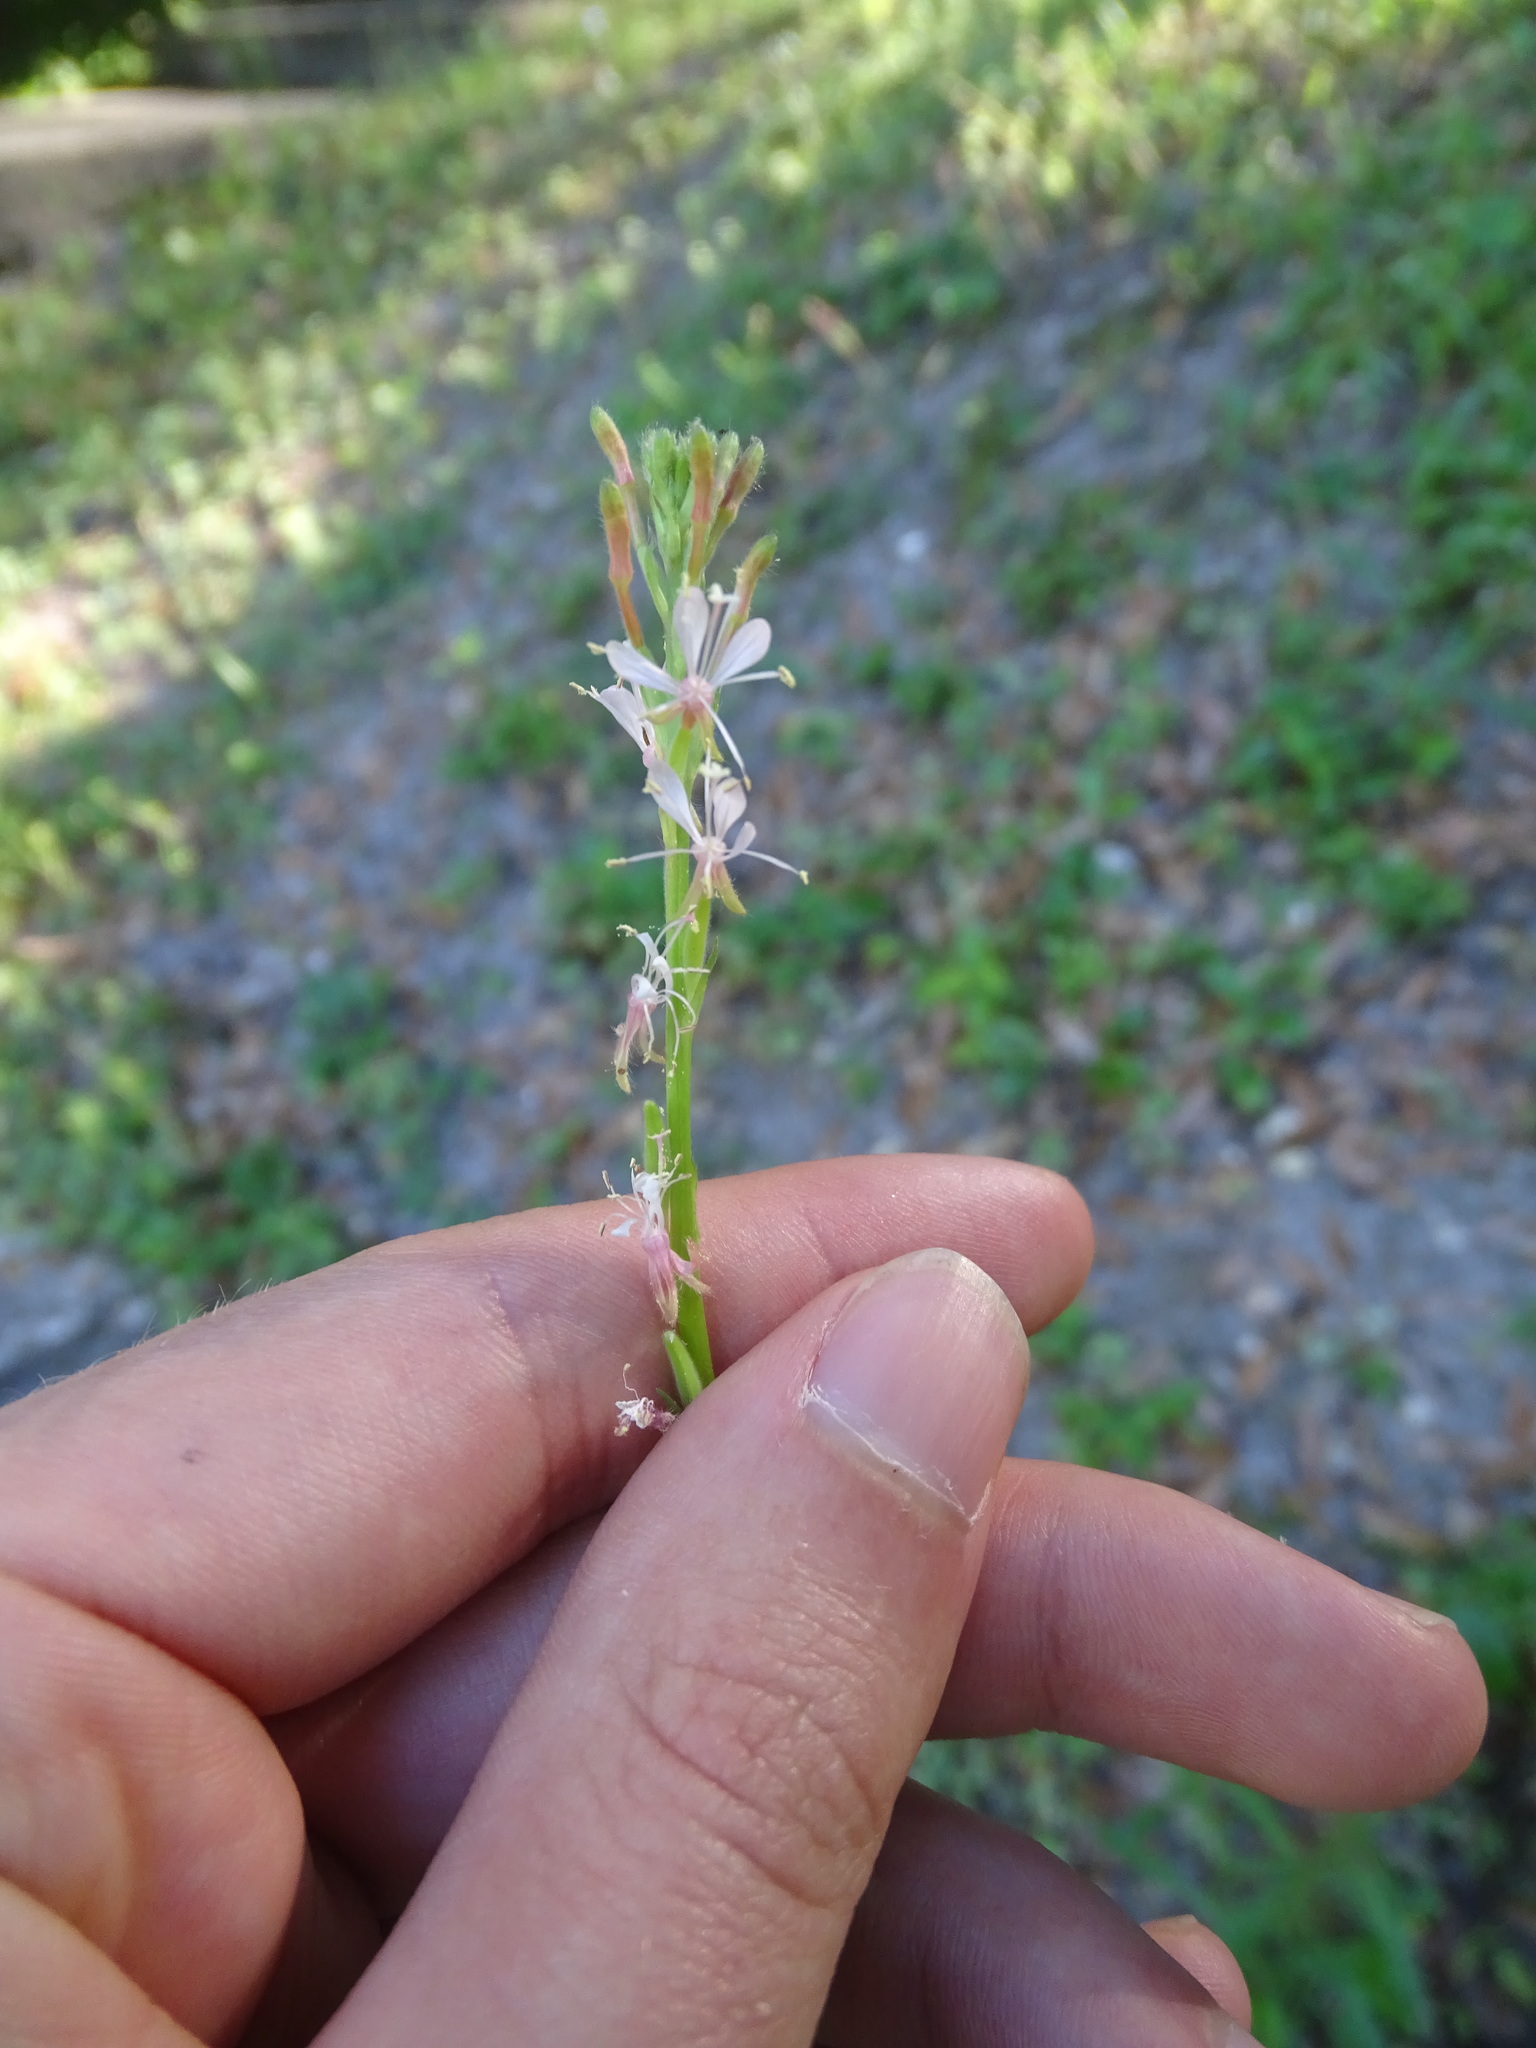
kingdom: Plantae
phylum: Tracheophyta
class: Magnoliopsida
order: Myrtales
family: Onagraceae
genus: Oenothera
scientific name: Oenothera simulans
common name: Southern beeblossom
